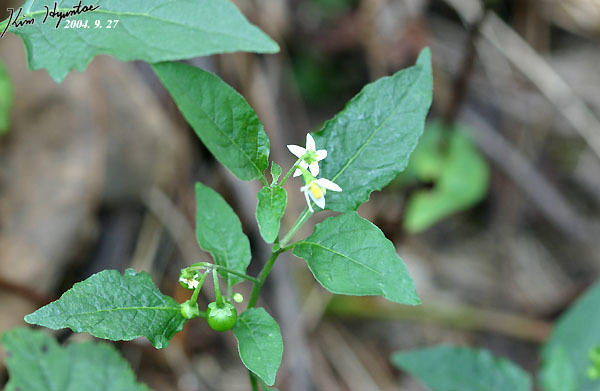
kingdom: Plantae
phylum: Tracheophyta
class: Magnoliopsida
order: Solanales
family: Solanaceae
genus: Solanum
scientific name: Solanum nigrum
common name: Black nightshade
